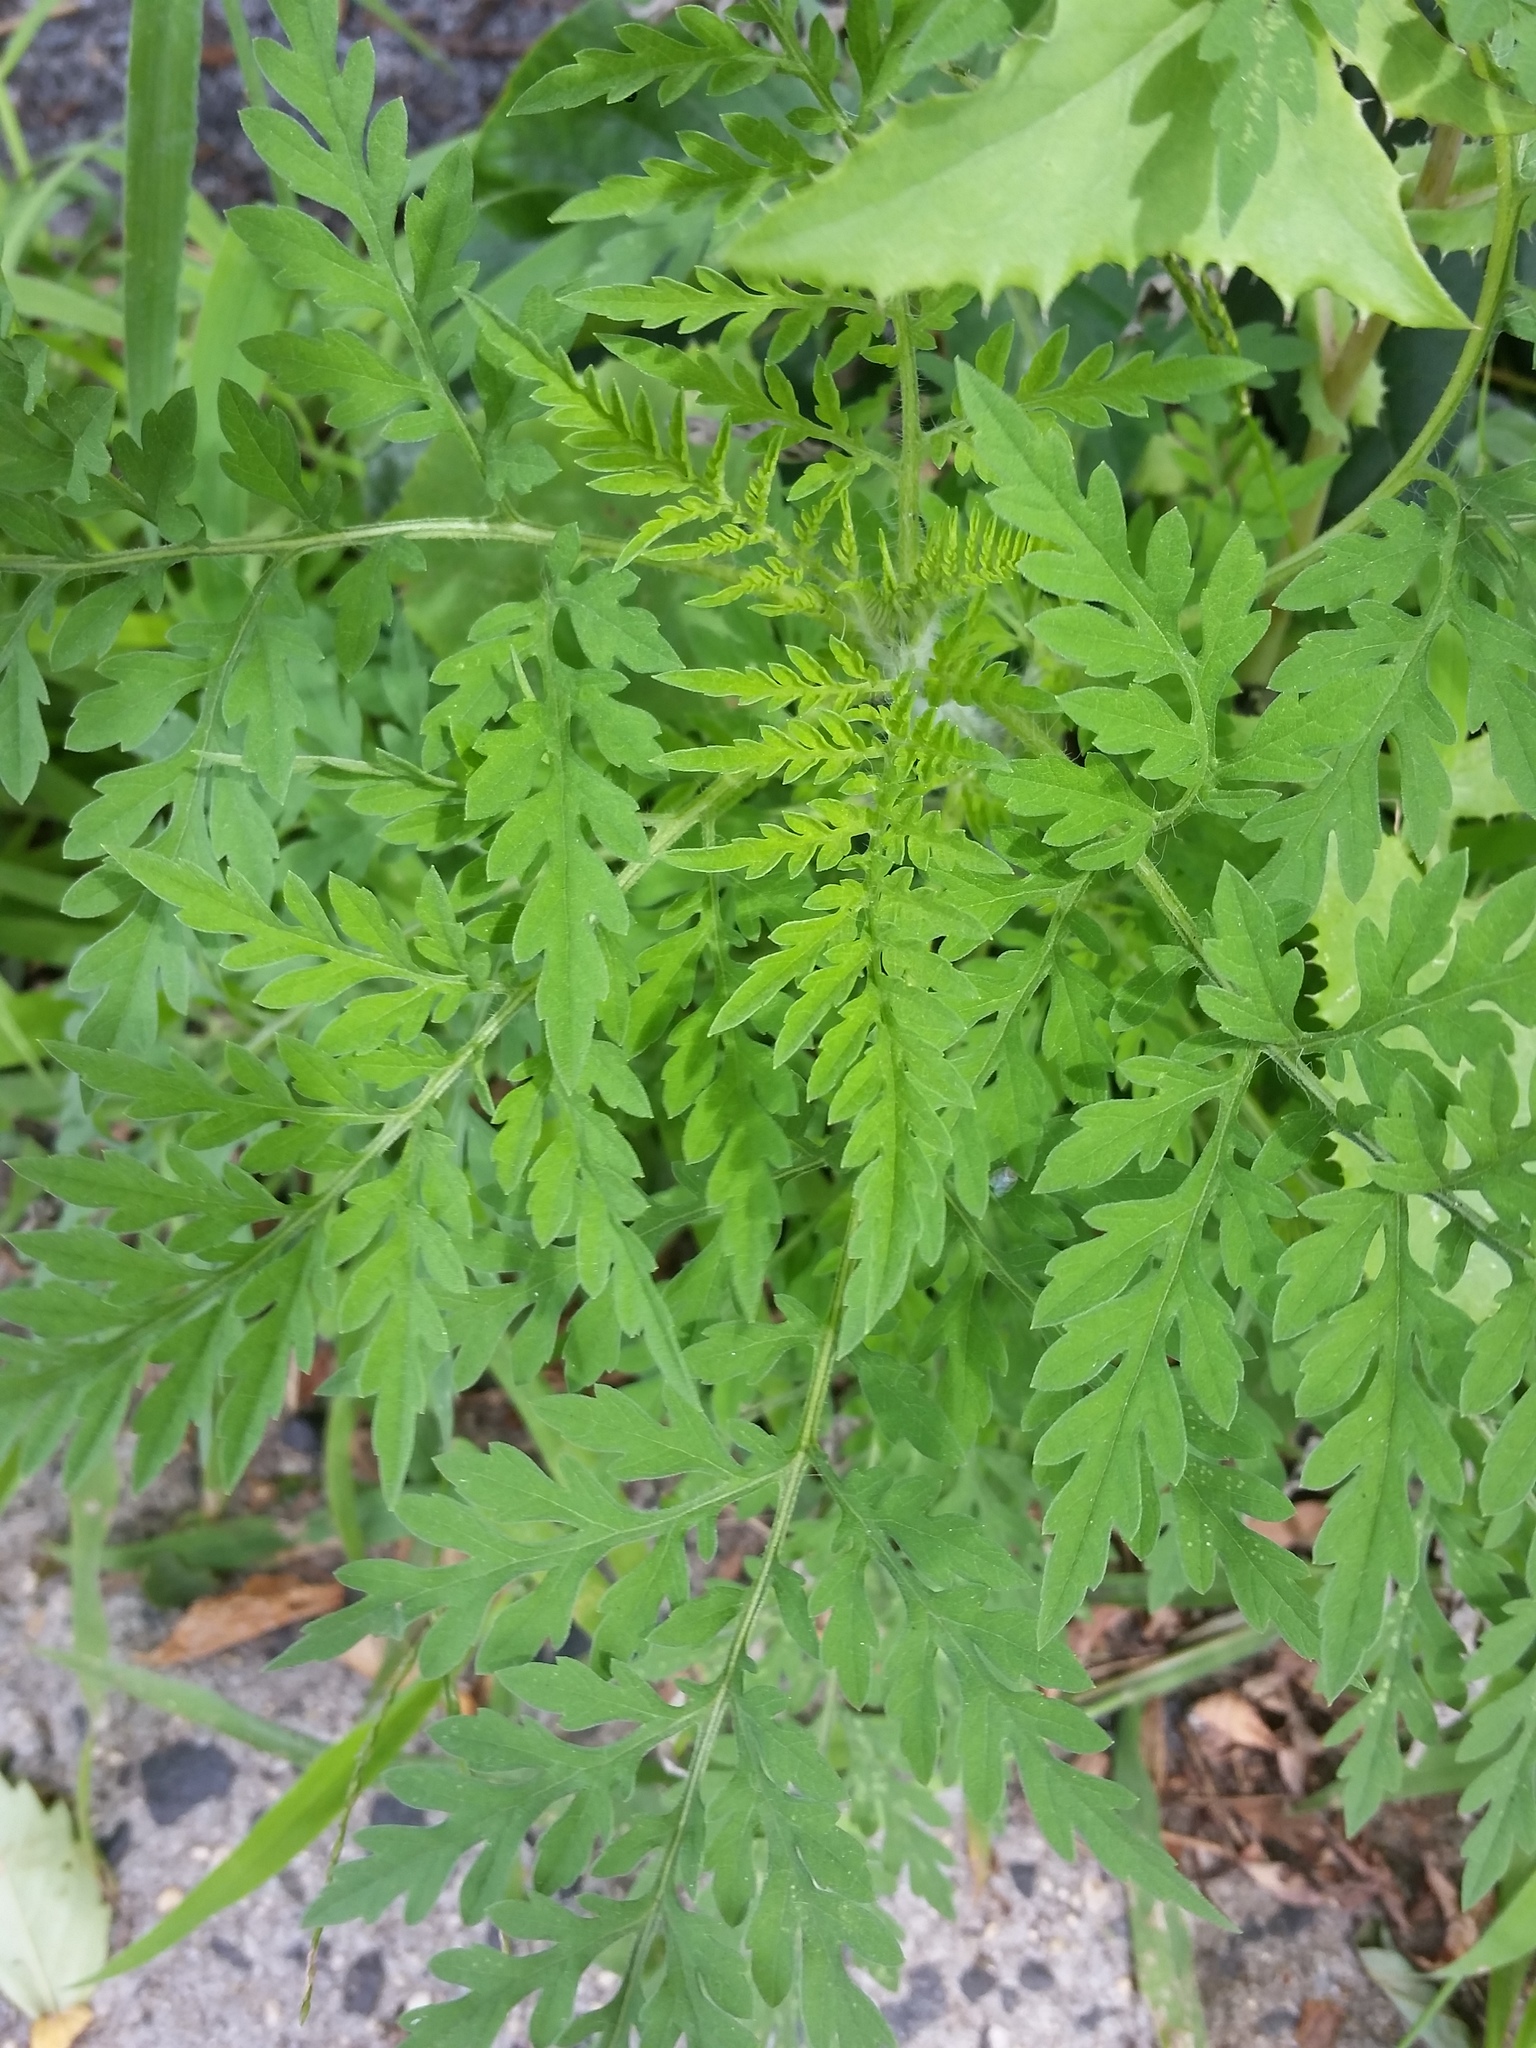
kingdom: Plantae
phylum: Tracheophyta
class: Magnoliopsida
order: Asterales
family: Asteraceae
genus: Ambrosia
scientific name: Ambrosia artemisiifolia
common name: Annual ragweed
